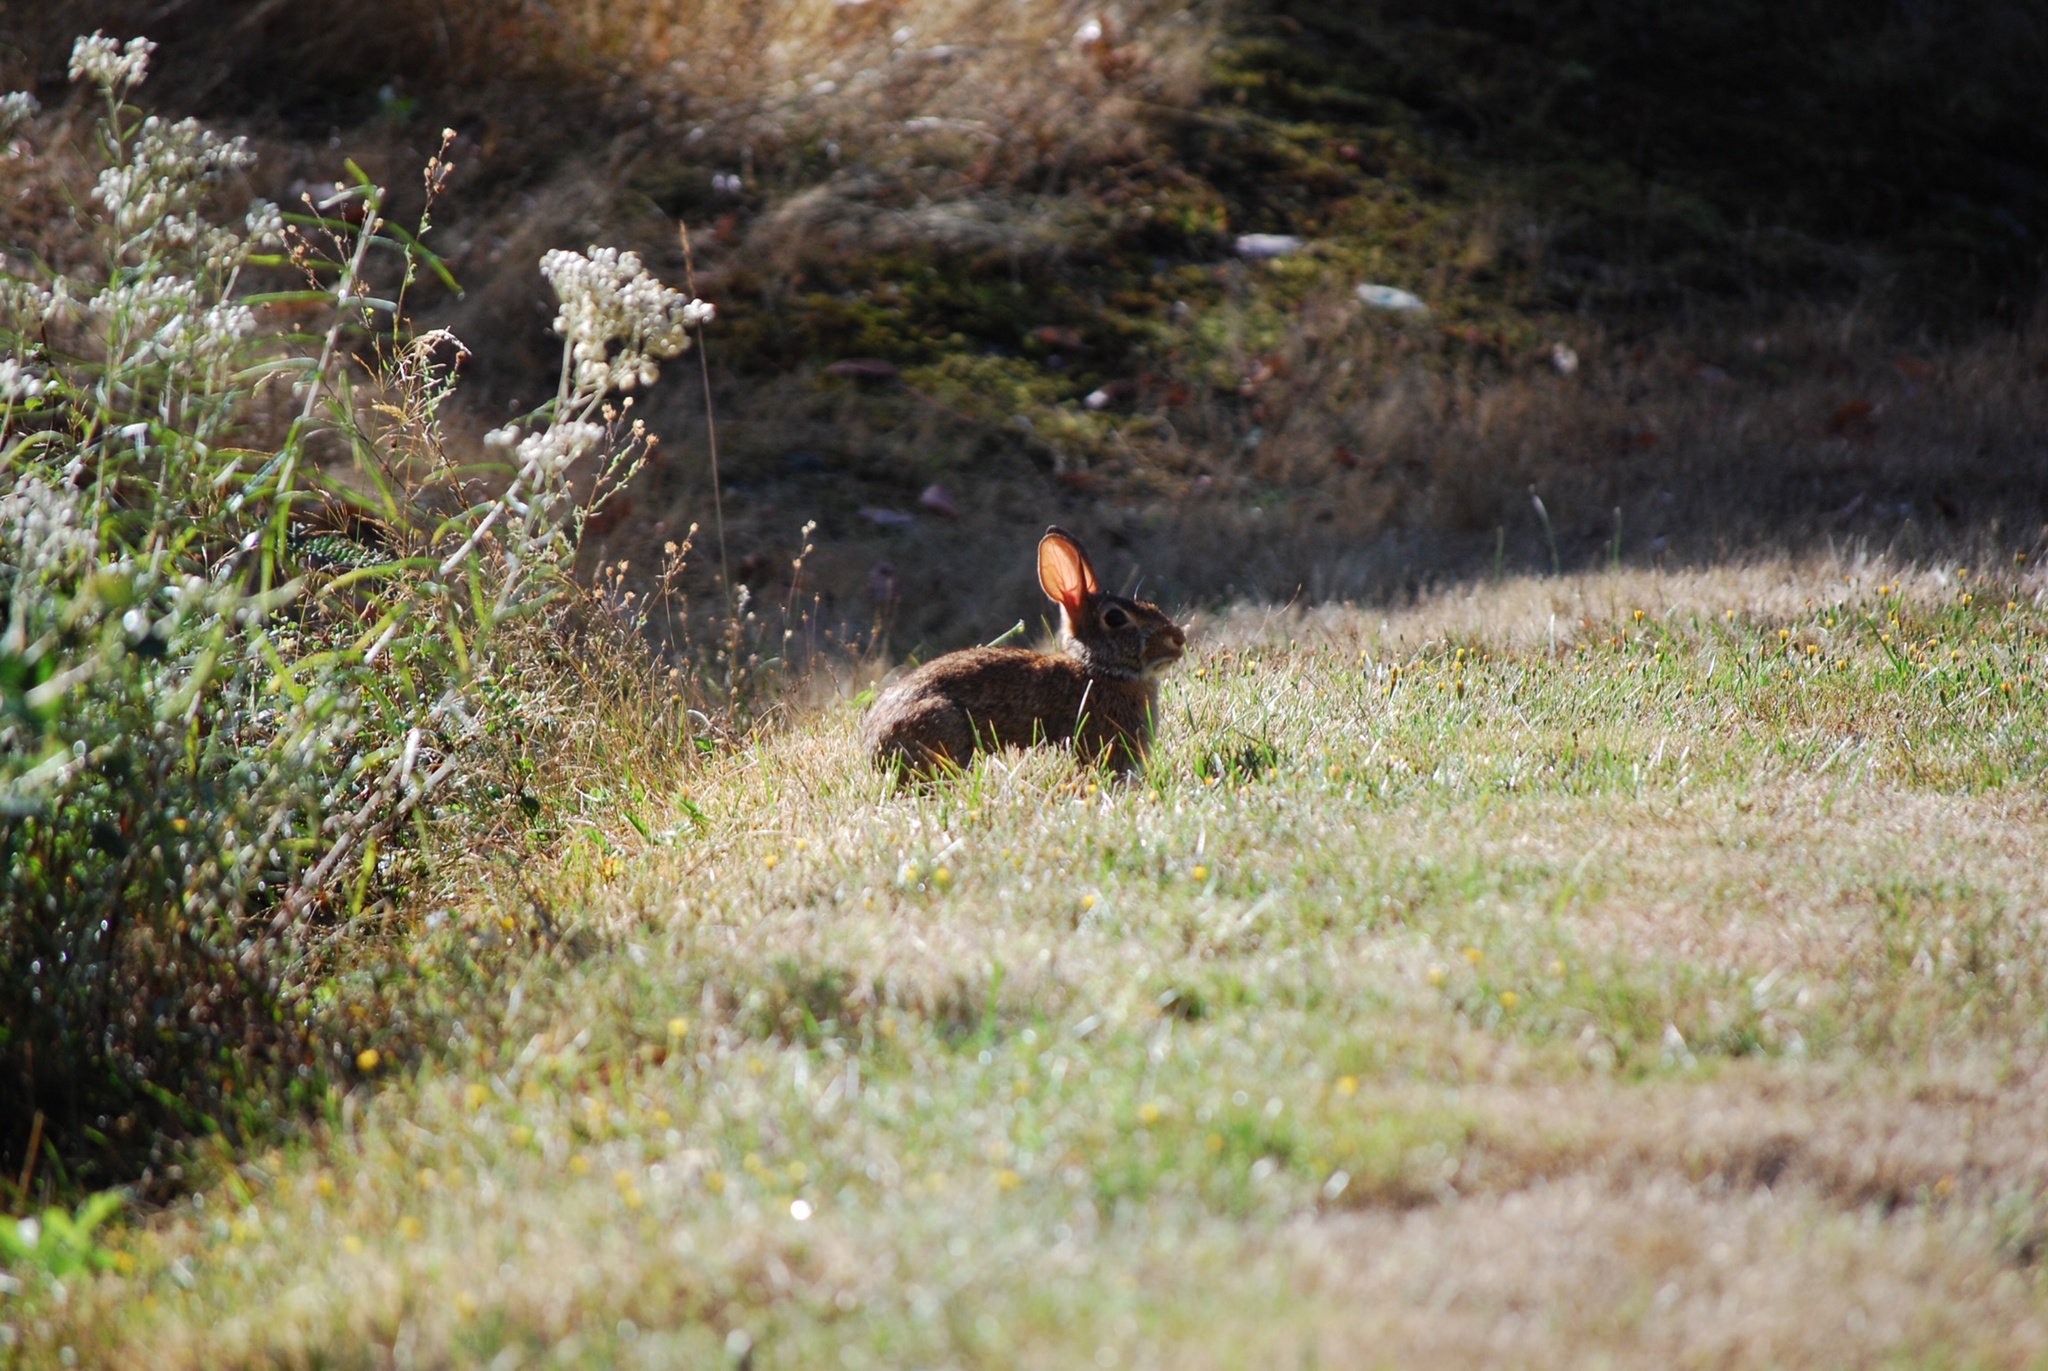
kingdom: Animalia
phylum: Chordata
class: Mammalia
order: Lagomorpha
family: Leporidae
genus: Sylvilagus
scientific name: Sylvilagus floridanus
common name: Eastern cottontail
